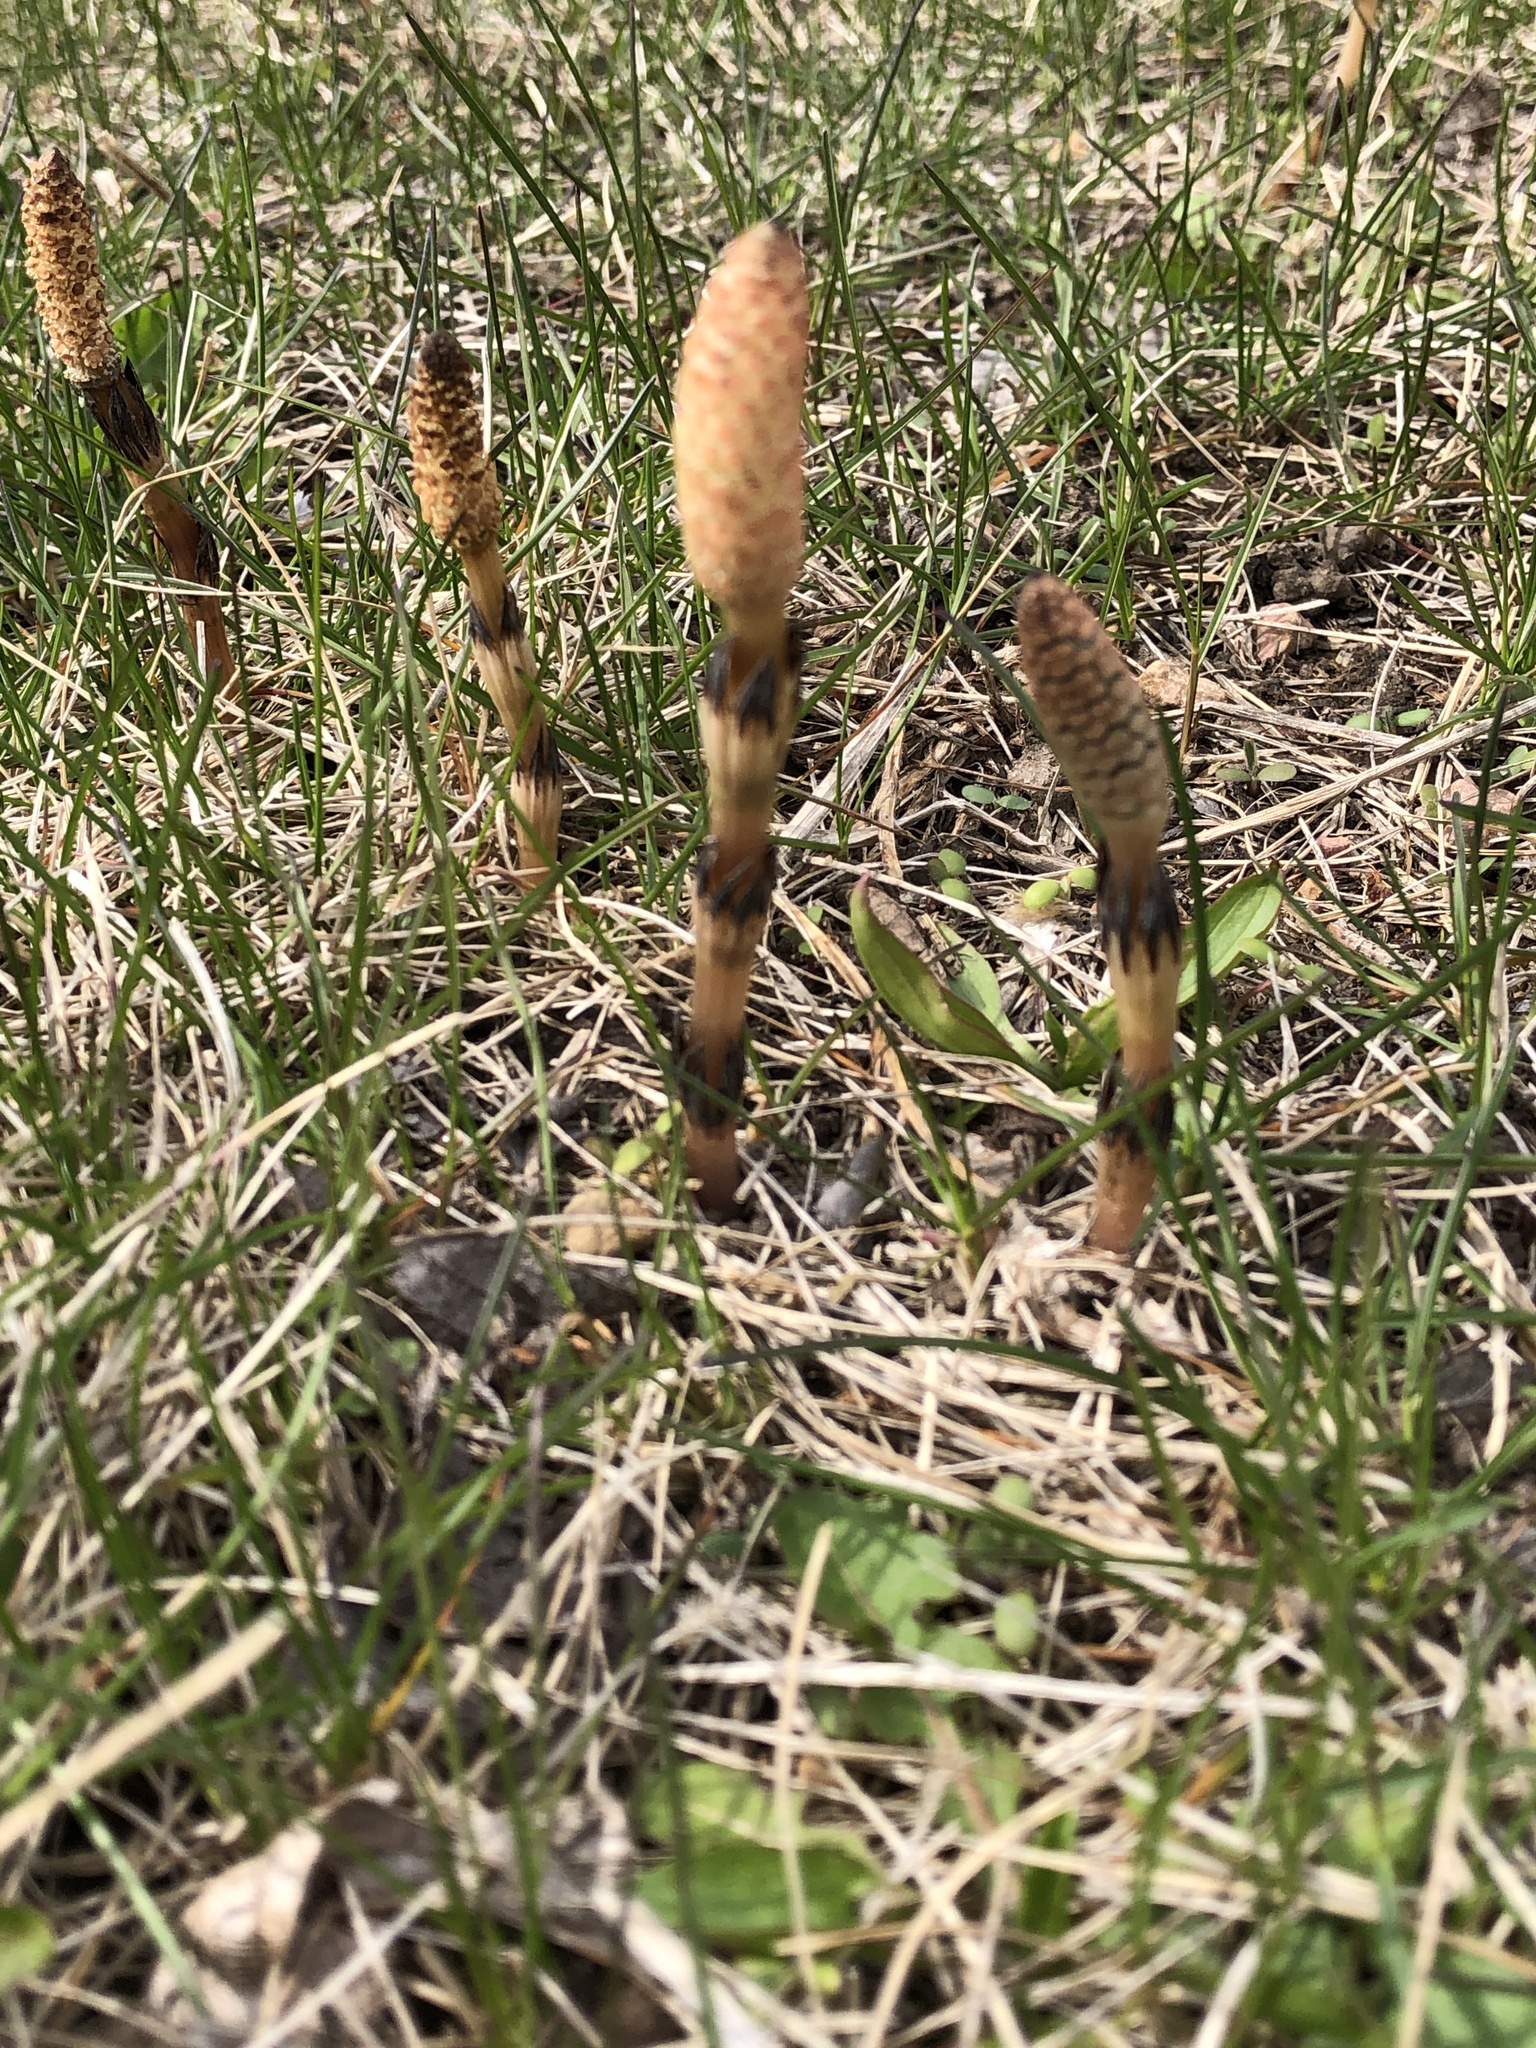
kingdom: Plantae
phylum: Tracheophyta
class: Polypodiopsida
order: Equisetales
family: Equisetaceae
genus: Equisetum
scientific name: Equisetum arvense
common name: Field horsetail
